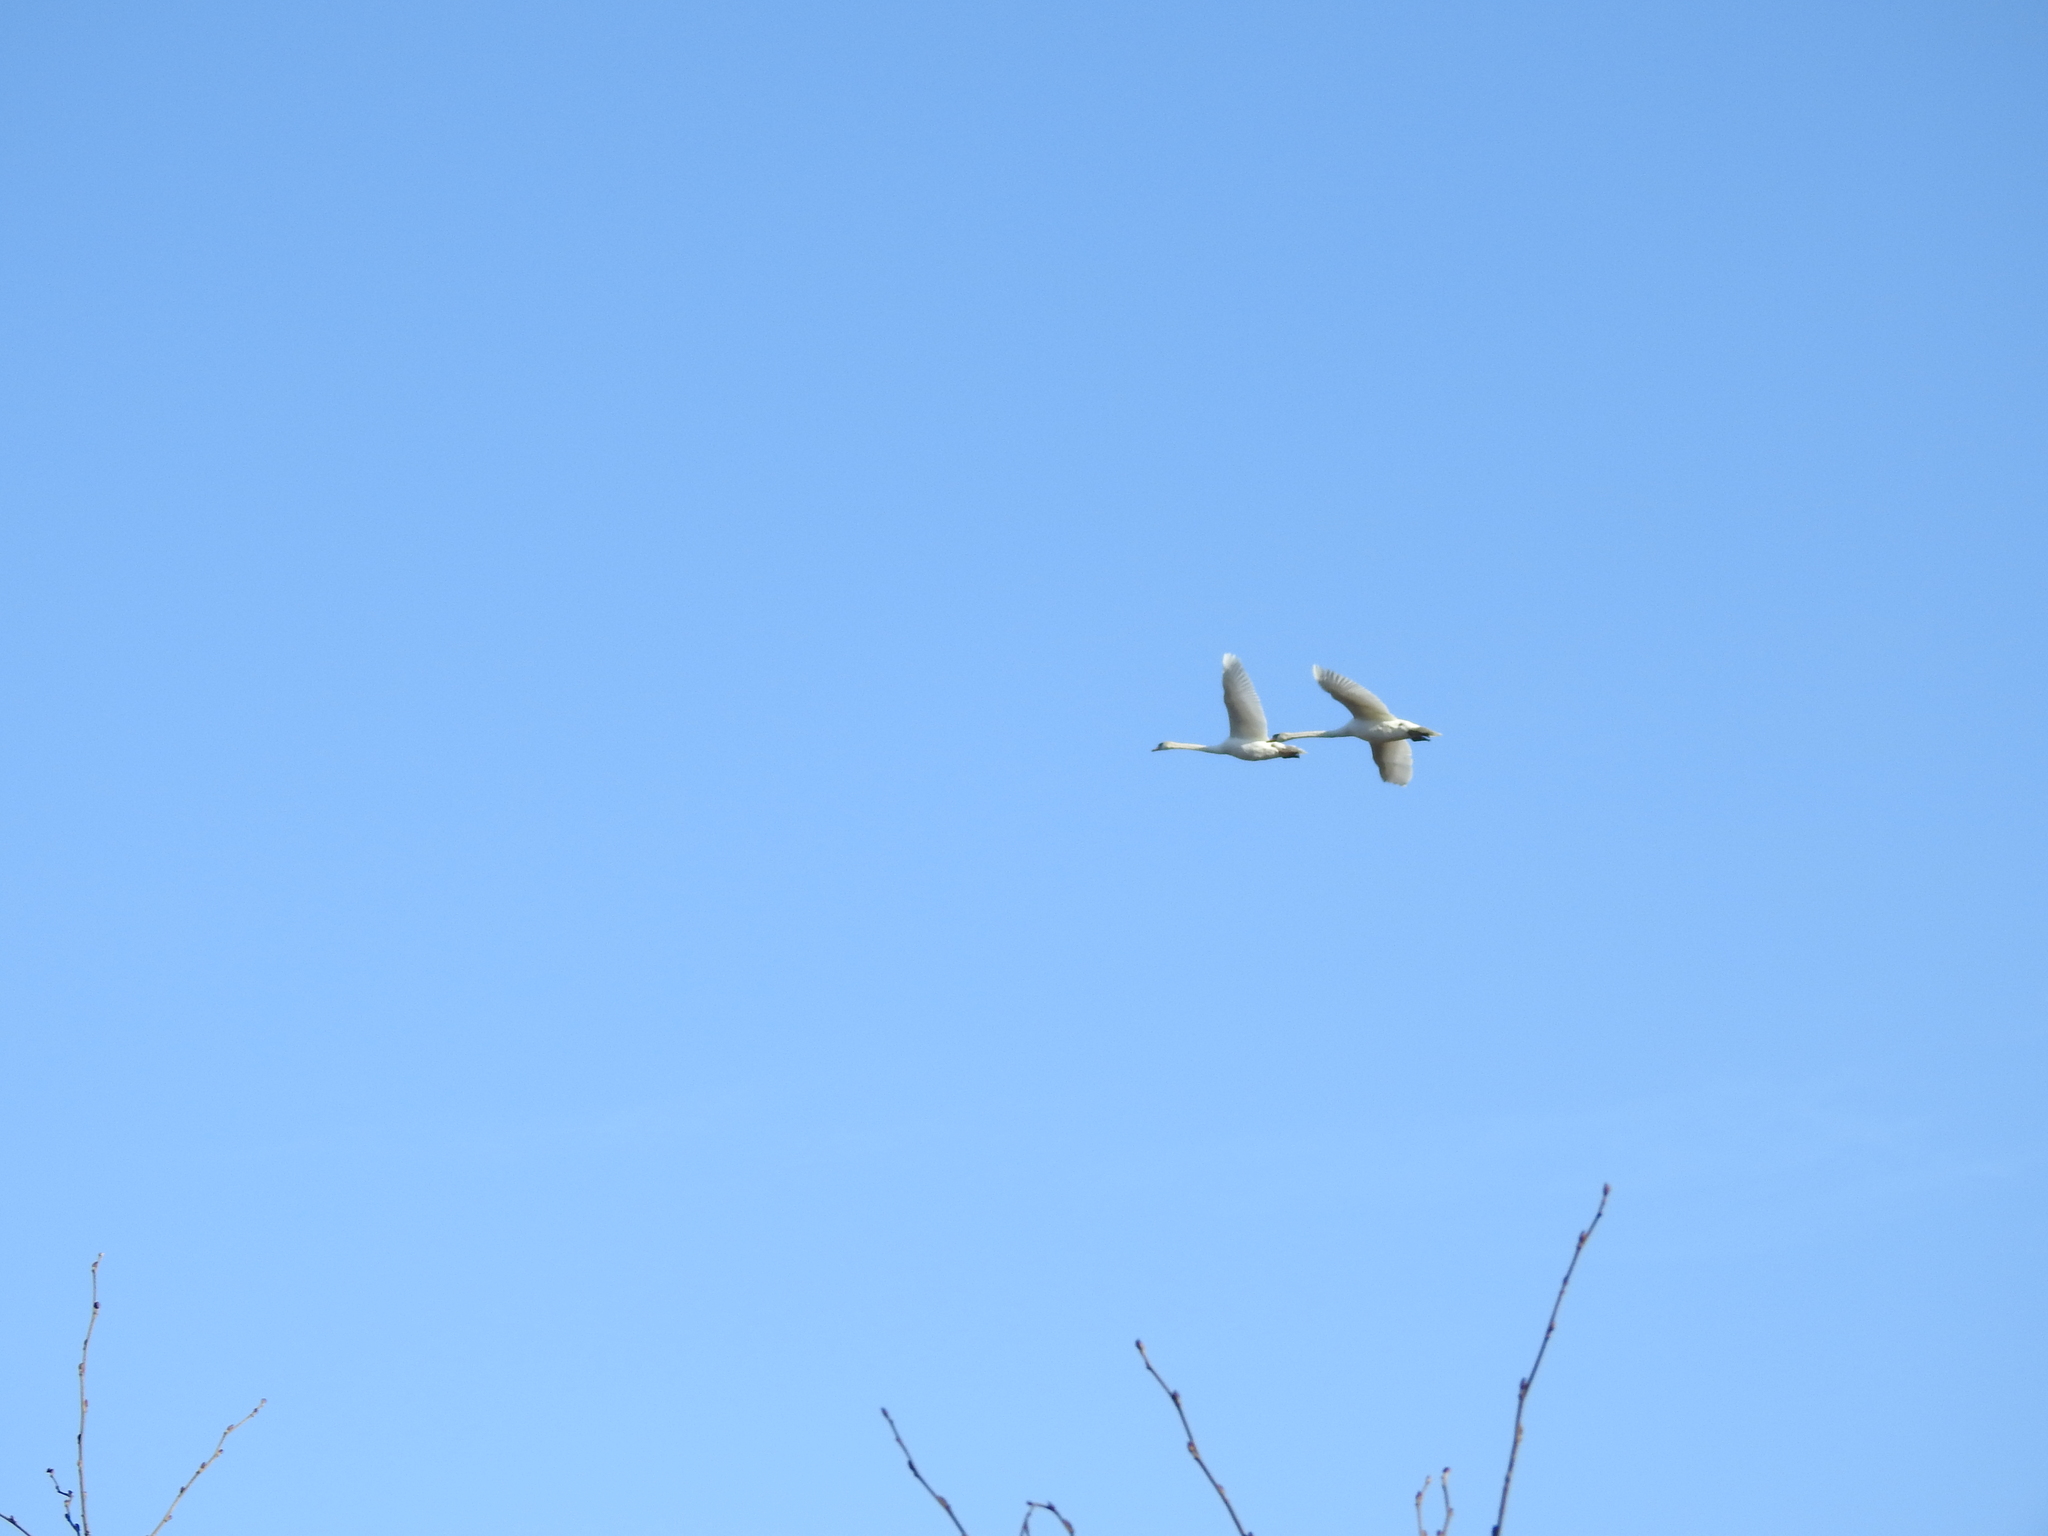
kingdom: Animalia
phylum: Chordata
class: Aves
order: Anseriformes
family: Anatidae
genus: Cygnus
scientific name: Cygnus olor
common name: Mute swan
